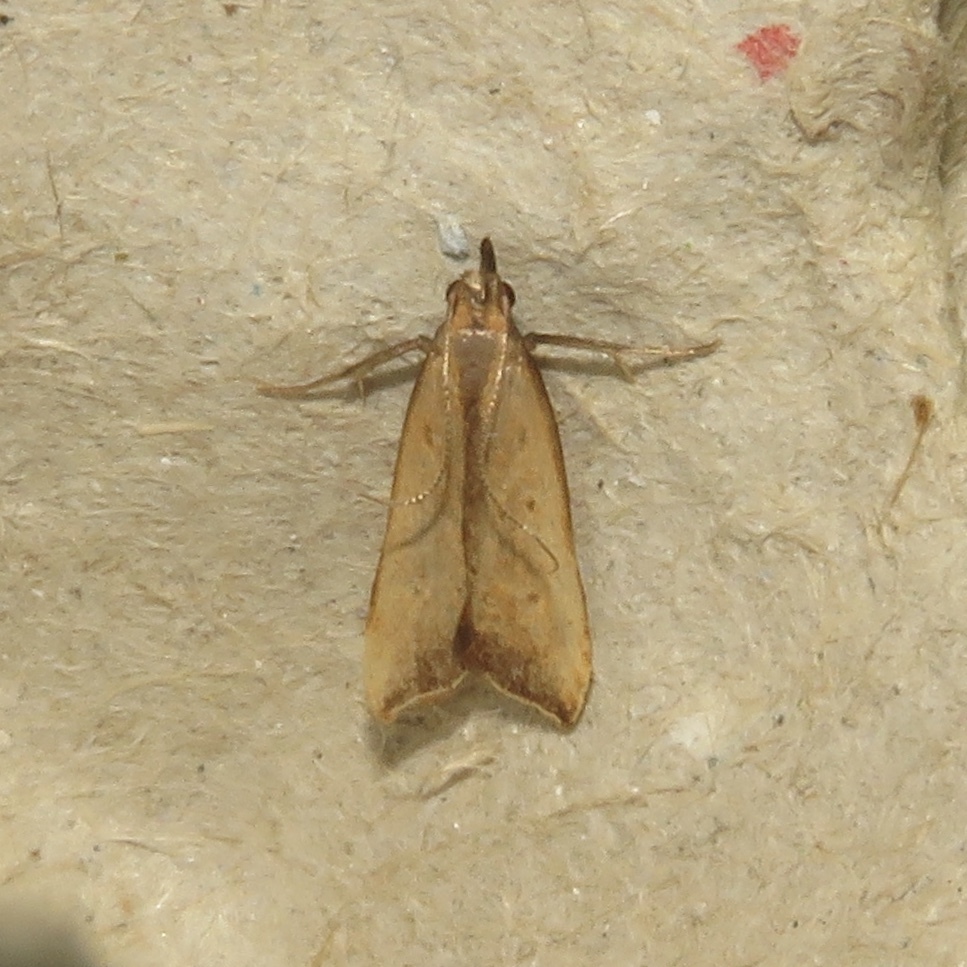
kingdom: Animalia
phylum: Arthropoda
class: Insecta
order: Lepidoptera
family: Gelechiidae
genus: Dichomeris
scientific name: Dichomeris heriguronis
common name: Black-edged dichomeris moth
